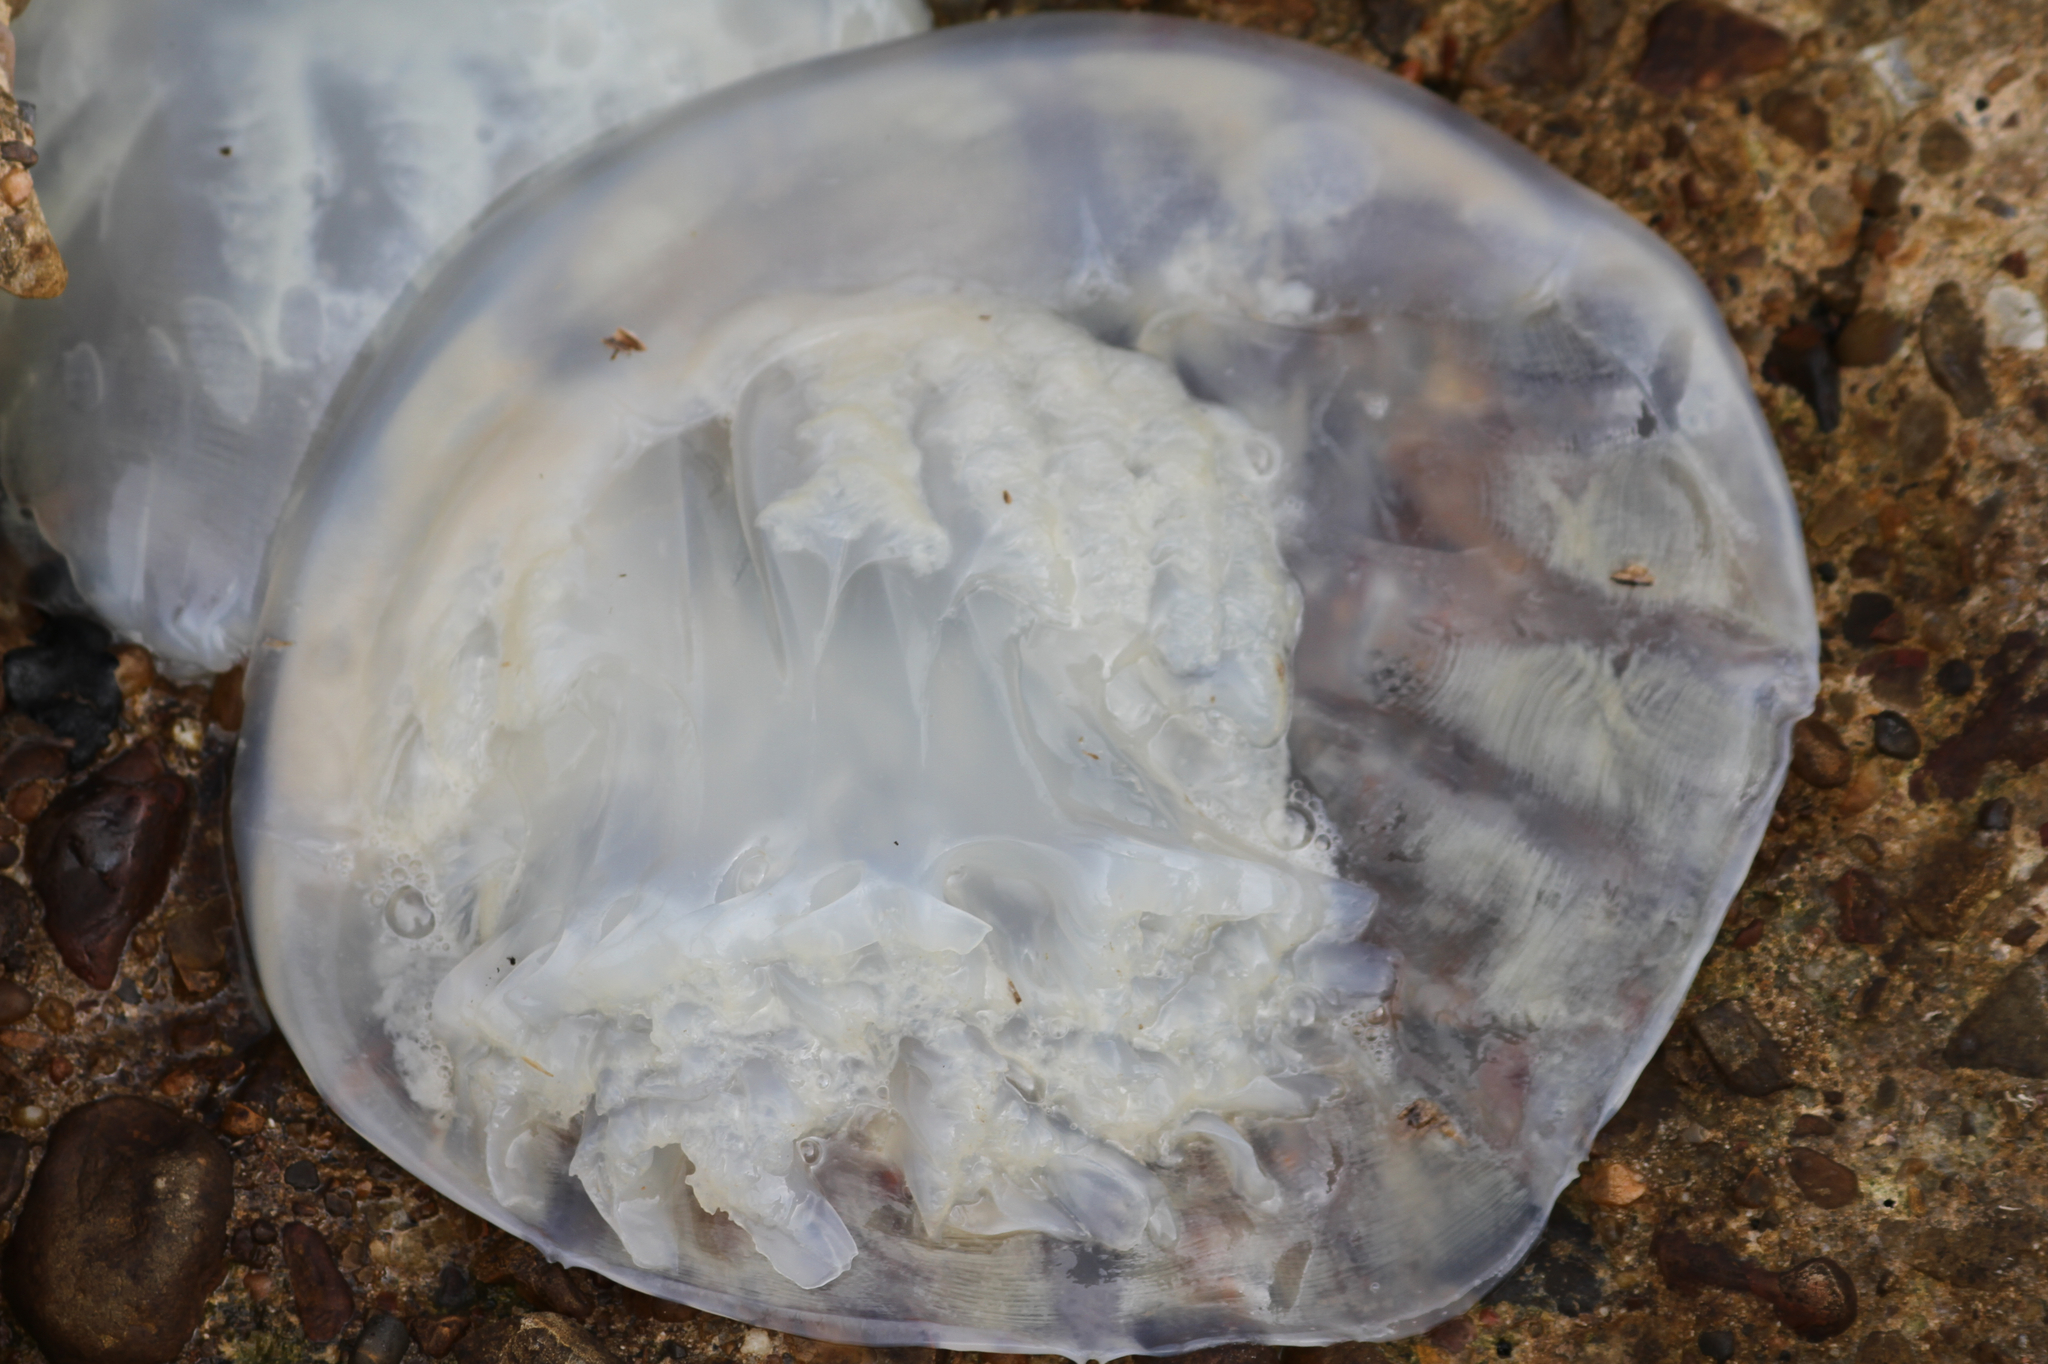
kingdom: Animalia
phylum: Cnidaria
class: Scyphozoa
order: Rhizostomeae
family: Stomolophidae
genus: Stomolophus
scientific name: Stomolophus meleagris
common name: Cabbagehead
